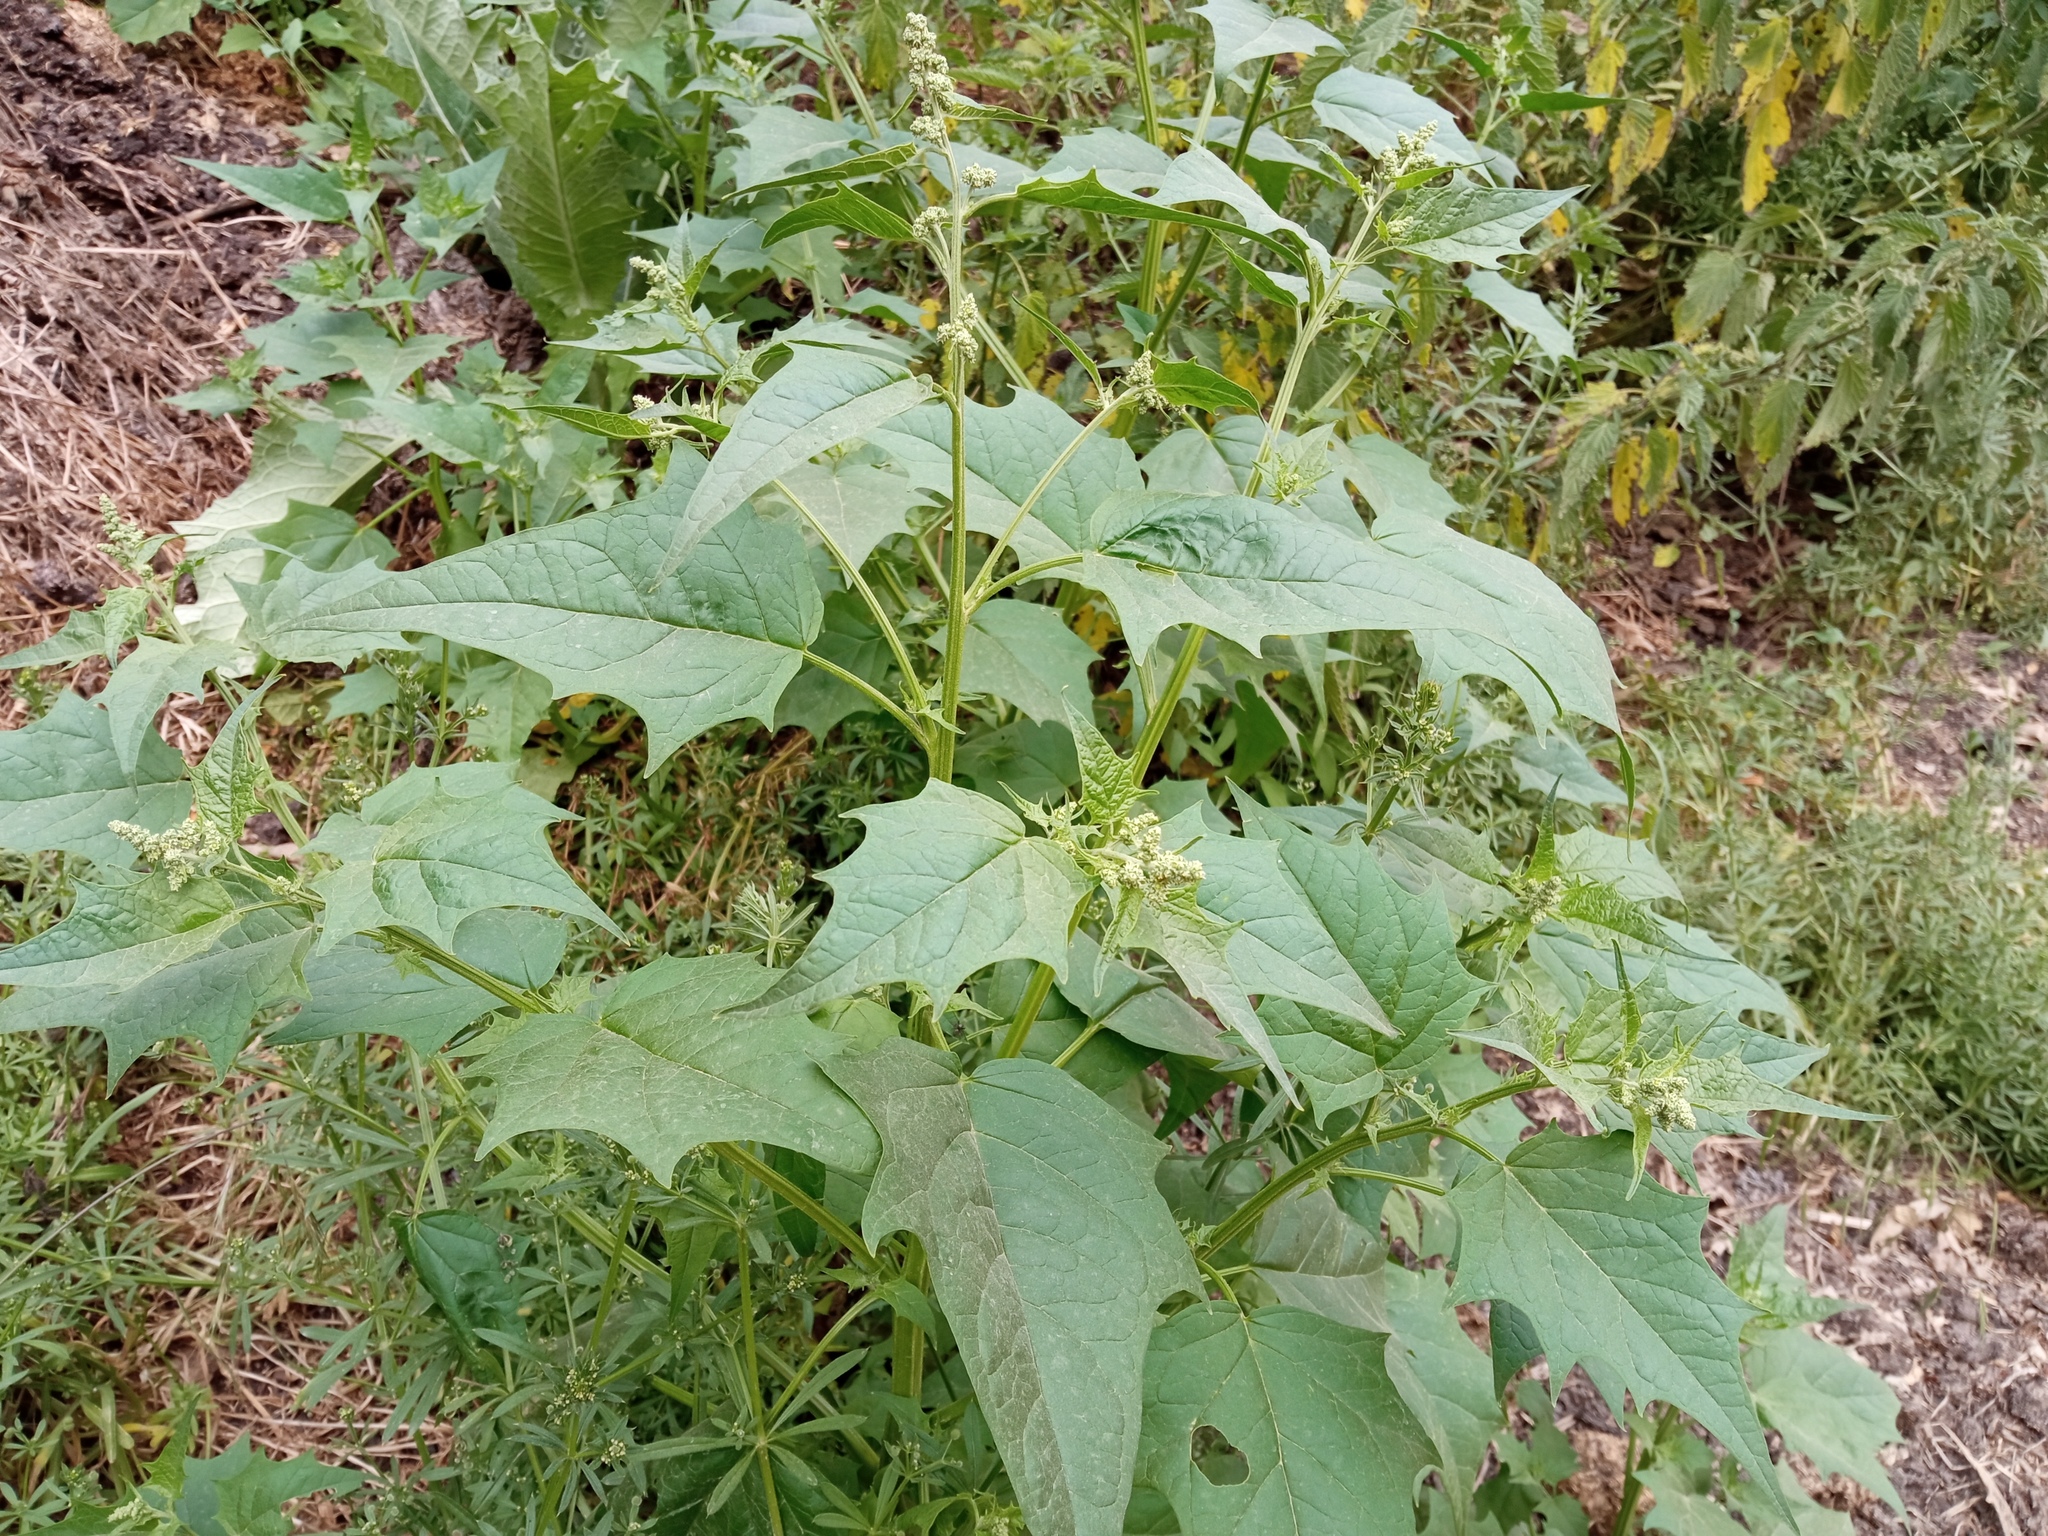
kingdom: Plantae
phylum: Tracheophyta
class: Magnoliopsida
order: Caryophyllales
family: Amaranthaceae
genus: Chenopodiastrum
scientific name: Chenopodiastrum hybridum
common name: Mapleleaf goosefoot
